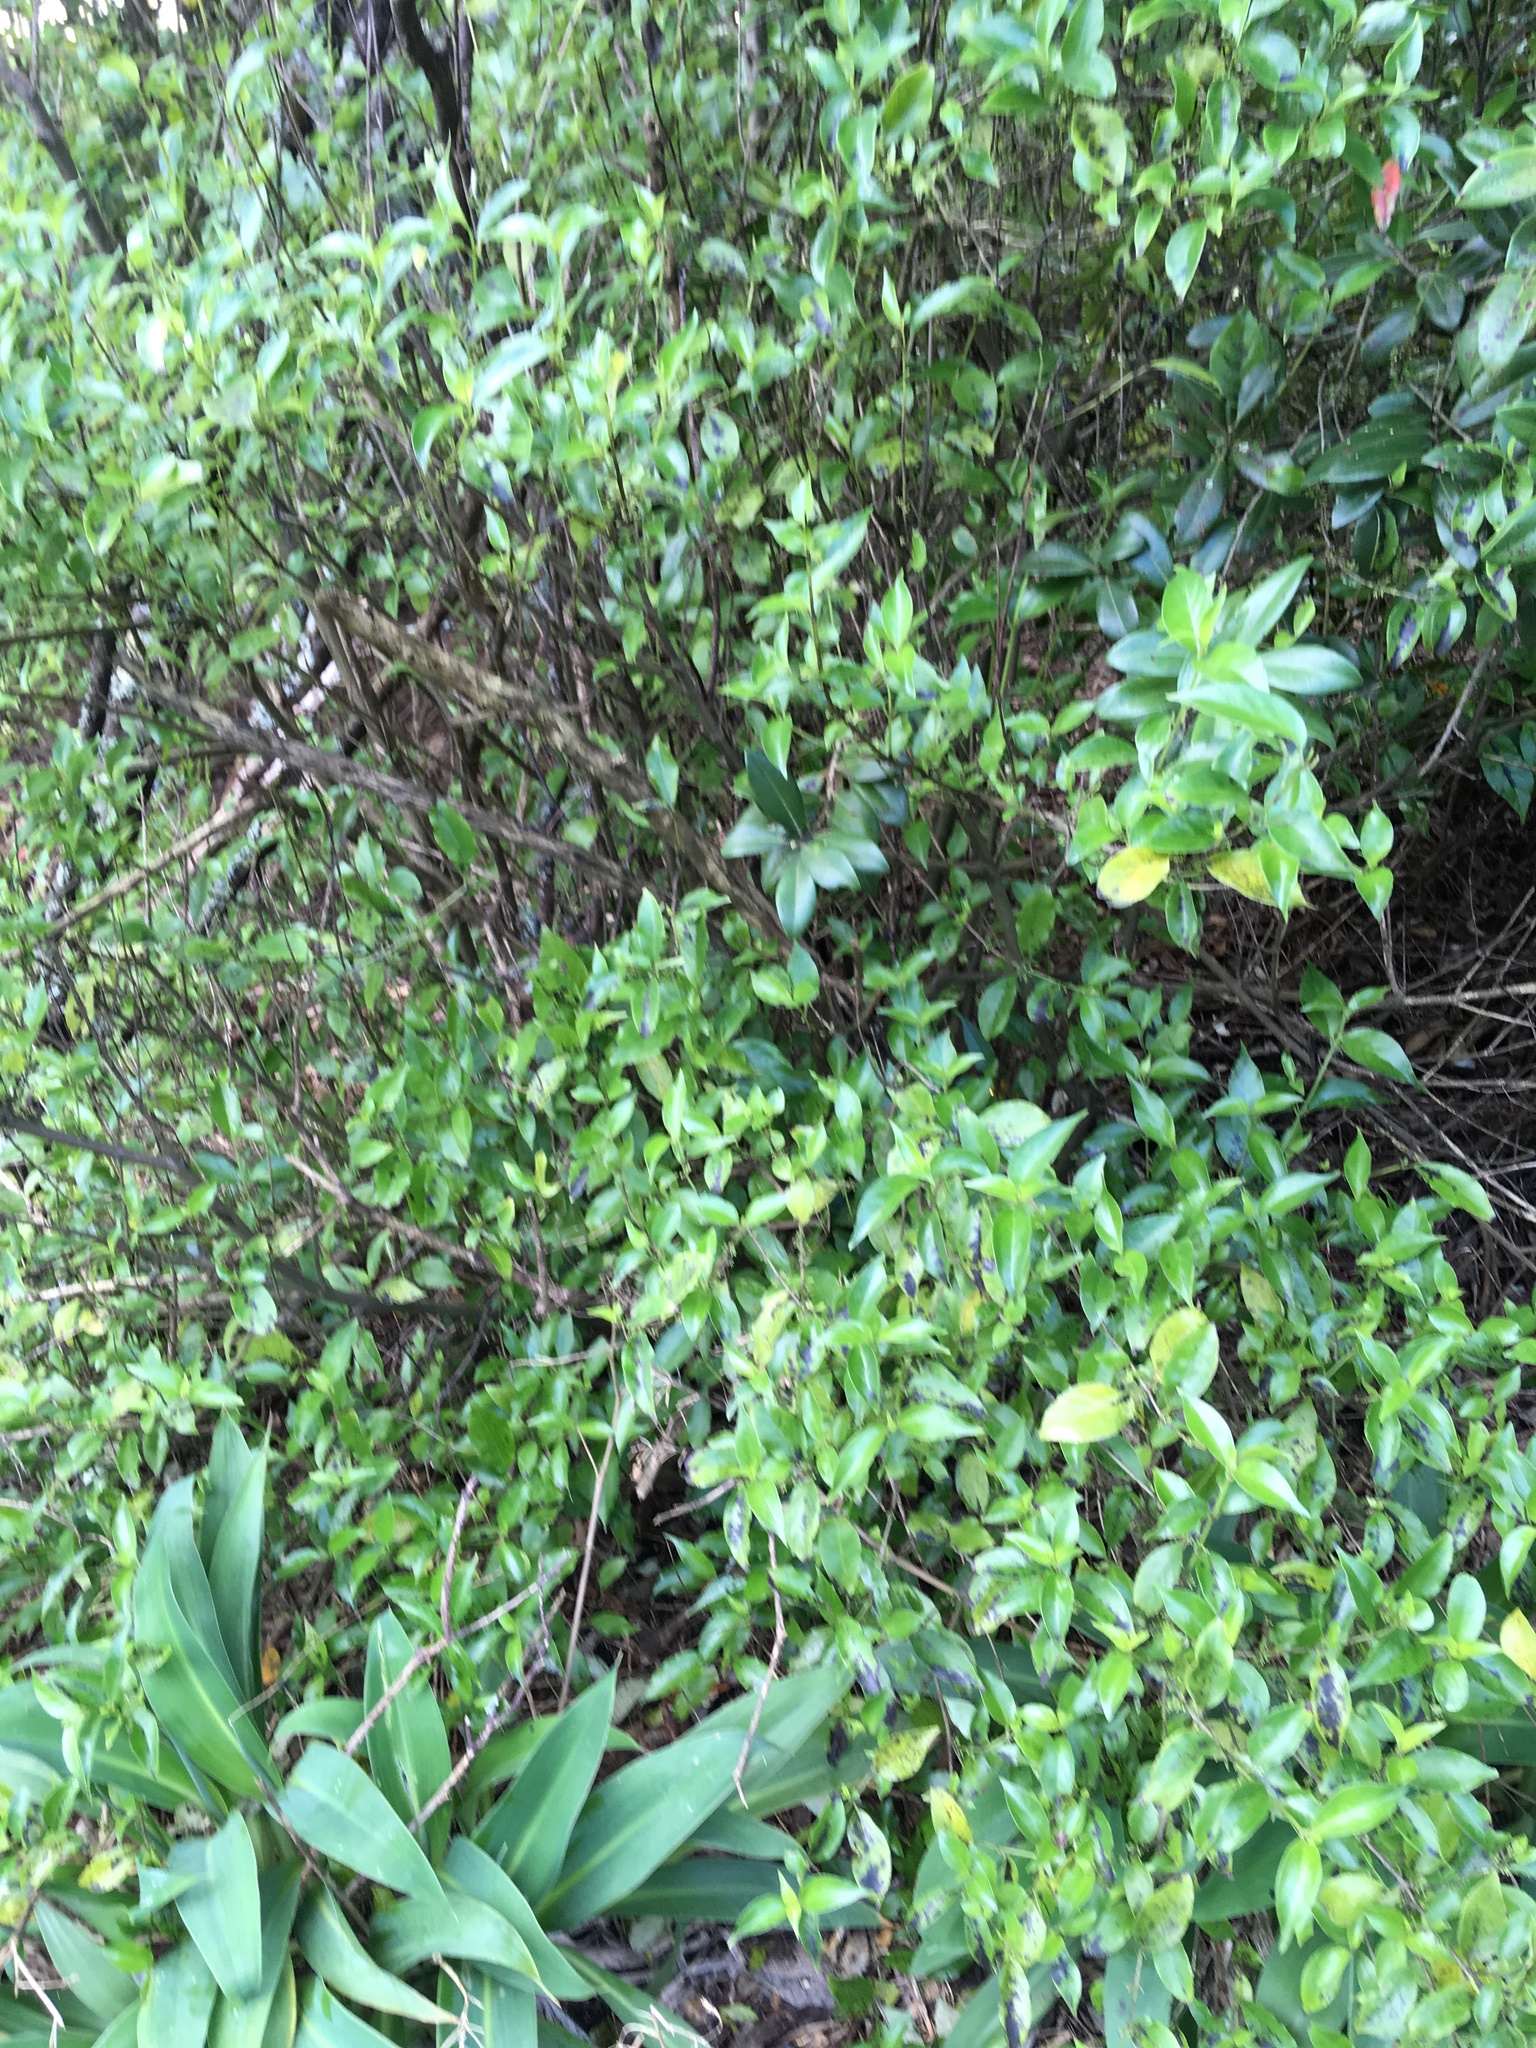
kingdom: Plantae
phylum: Tracheophyta
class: Magnoliopsida
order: Gentianales
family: Loganiaceae
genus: Geniostoma
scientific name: Geniostoma ligustrifolium
